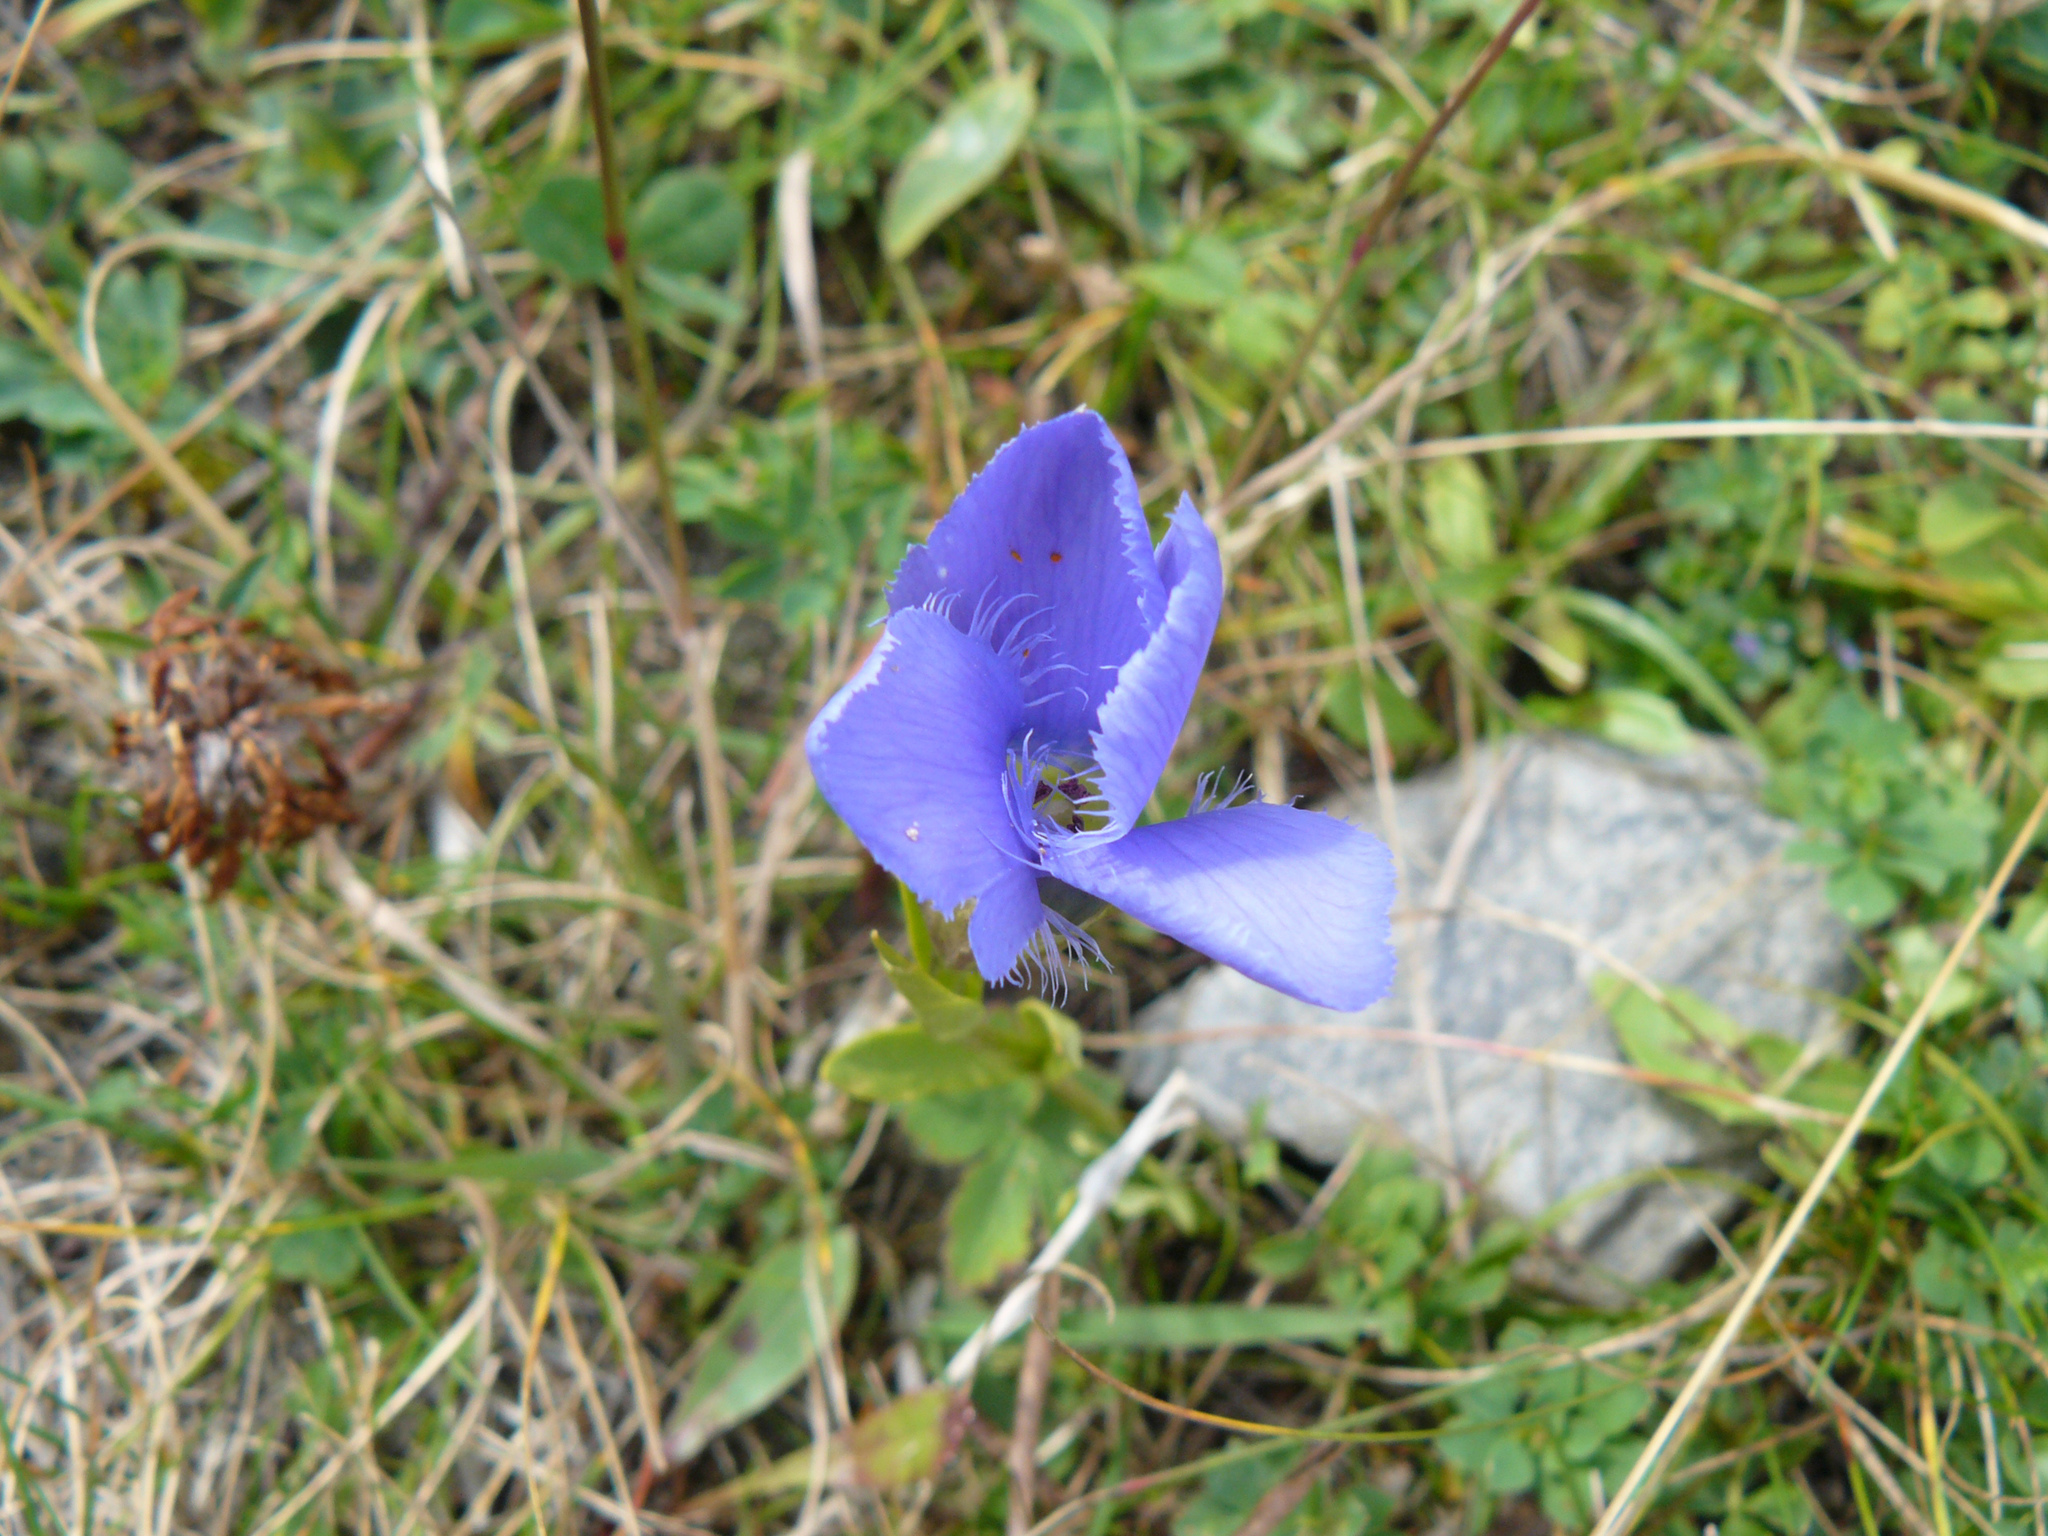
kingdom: Plantae
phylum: Tracheophyta
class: Magnoliopsida
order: Gentianales
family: Gentianaceae
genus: Gentianopsis
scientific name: Gentianopsis ciliata
